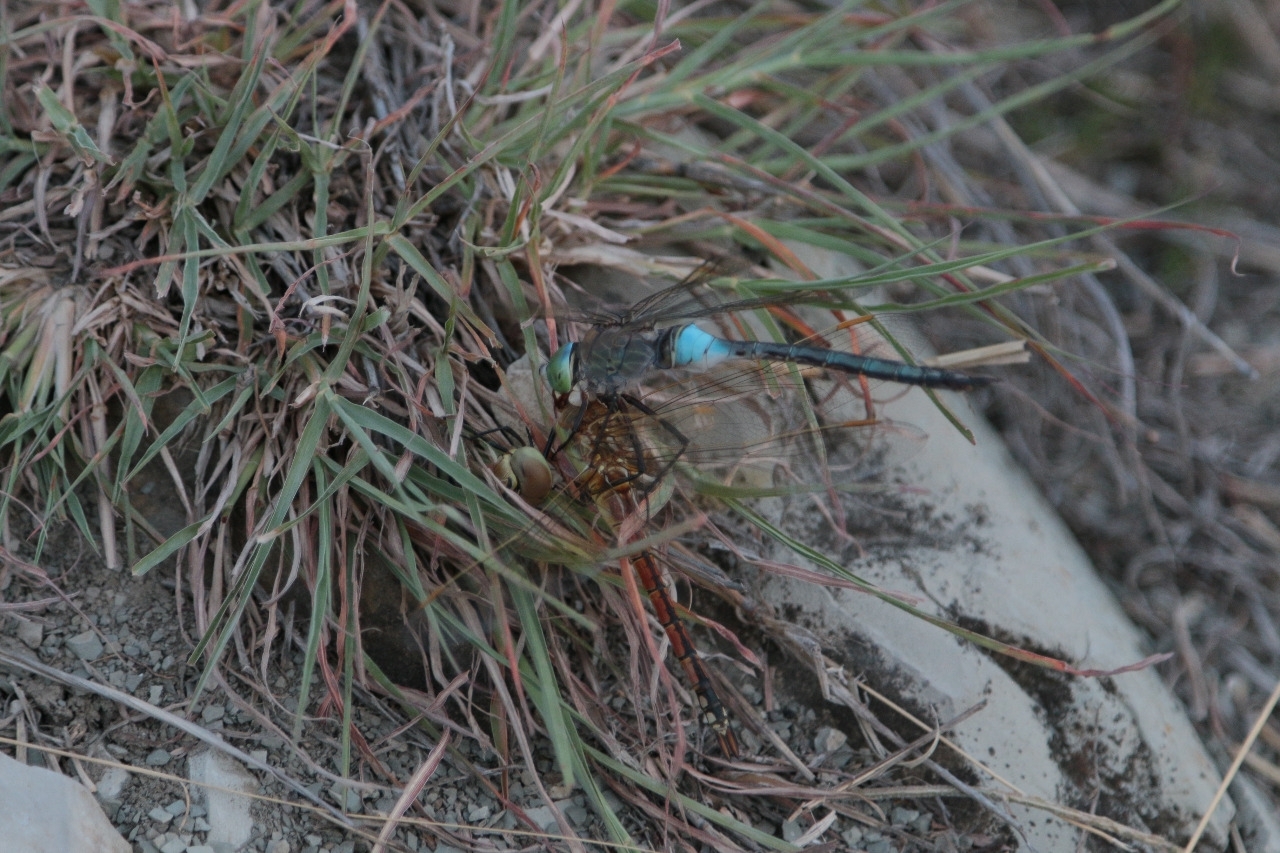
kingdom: Animalia
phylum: Arthropoda
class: Insecta
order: Odonata
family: Aeshnidae
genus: Anax
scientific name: Anax ephippiger
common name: Vagrant emperor
